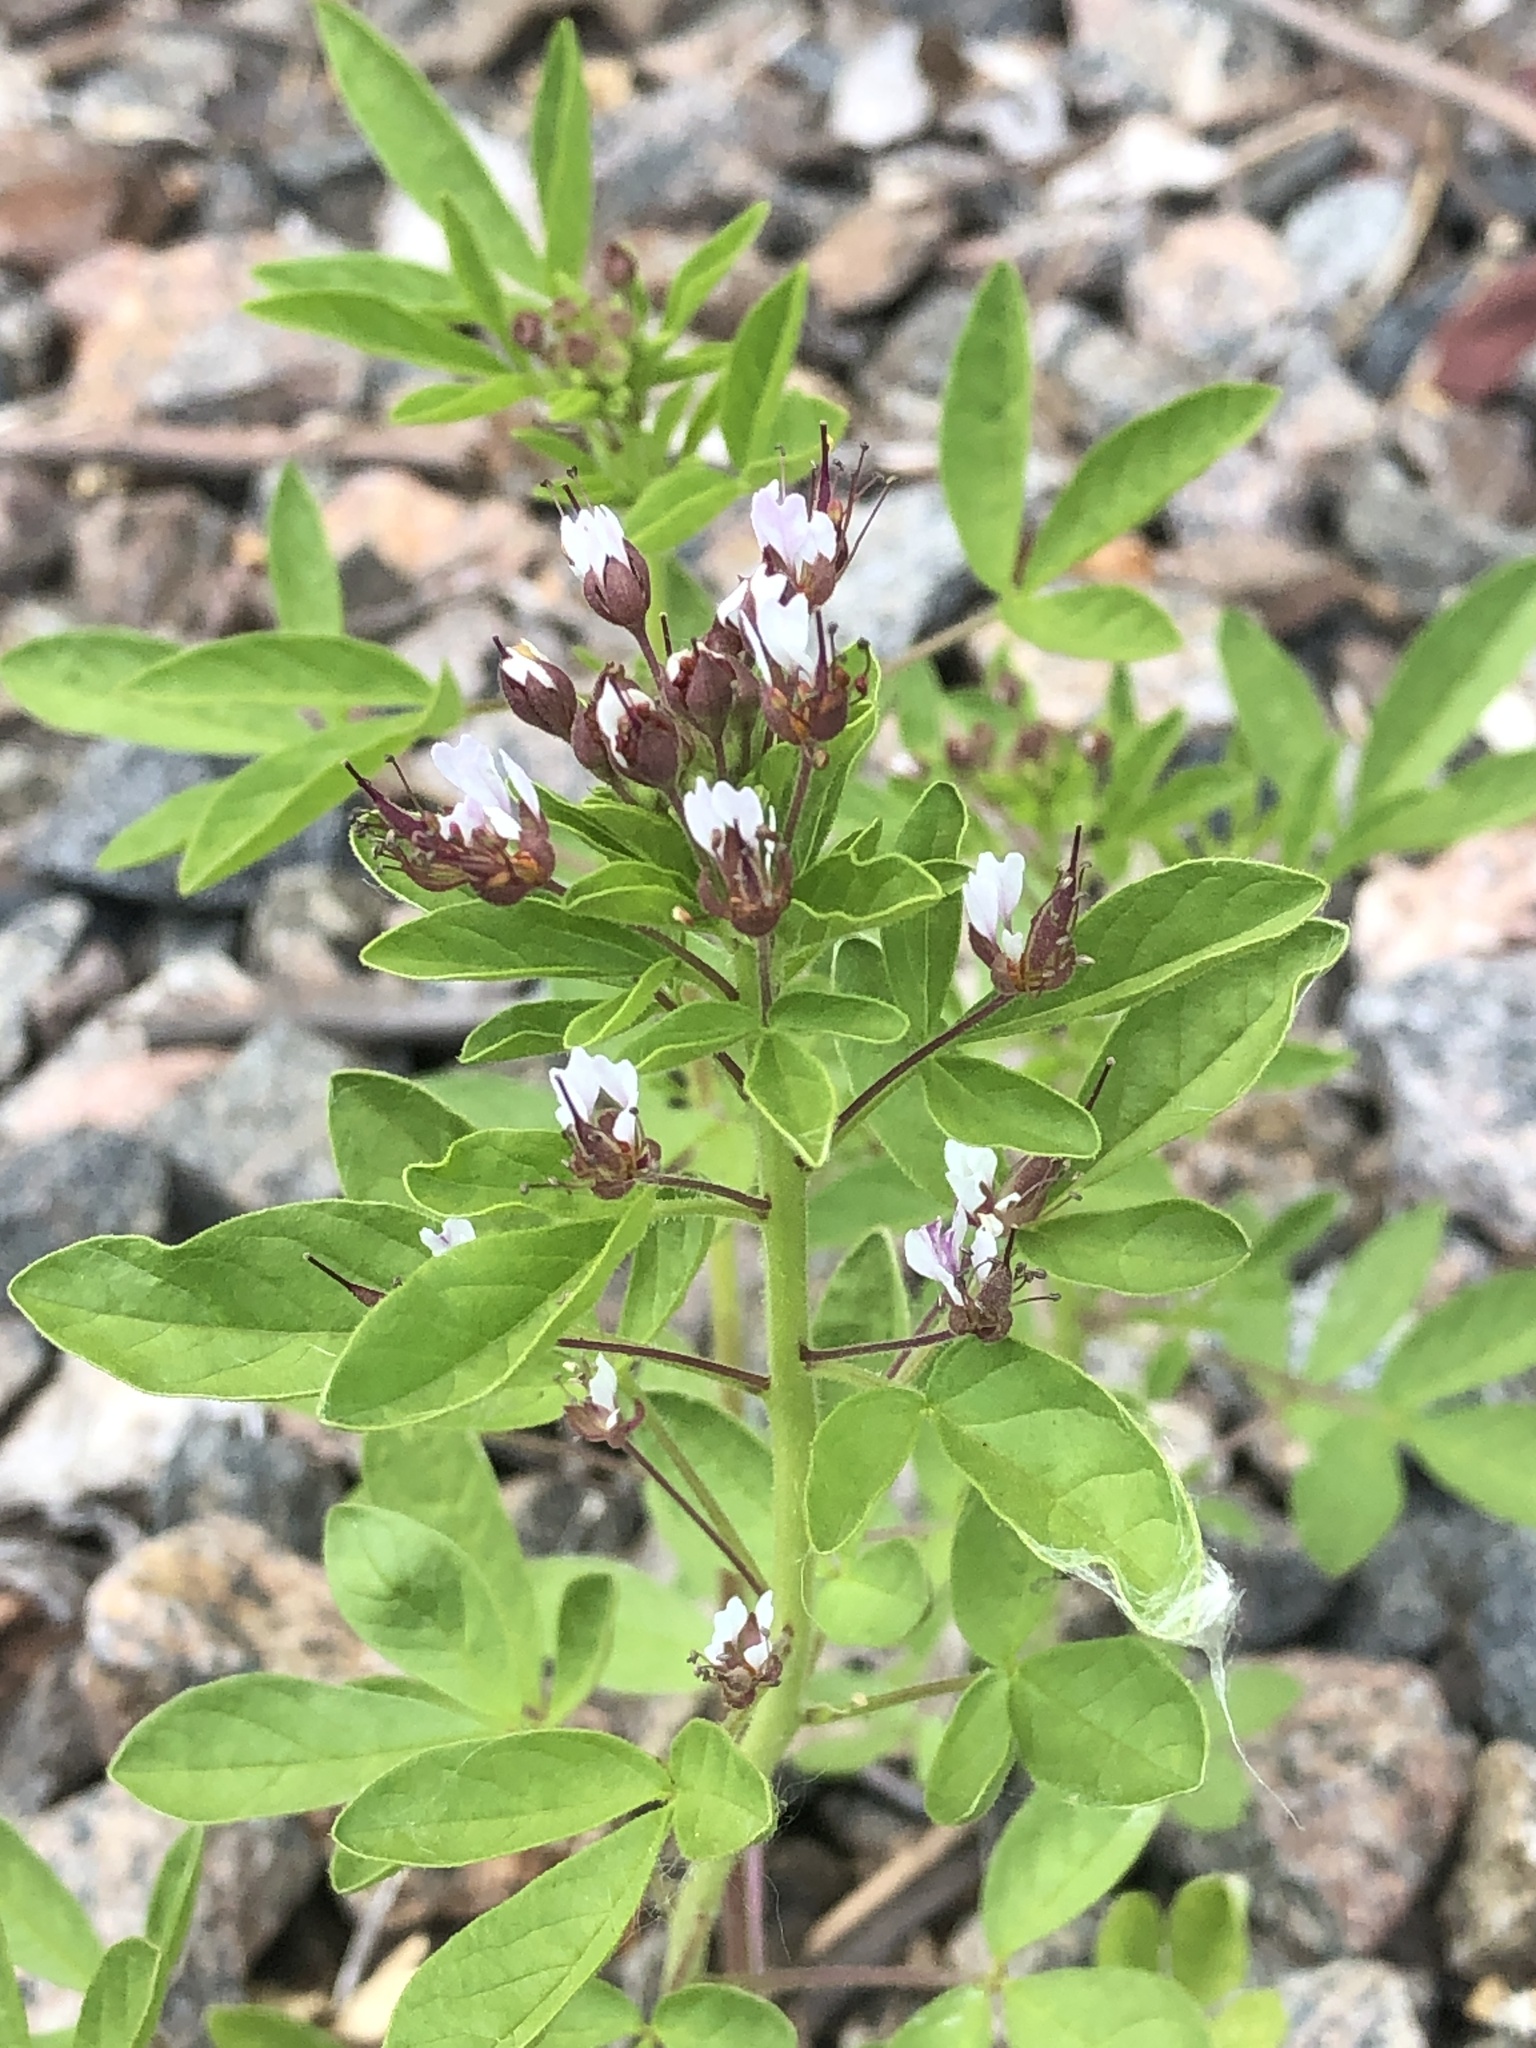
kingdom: Plantae
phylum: Tracheophyta
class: Magnoliopsida
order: Brassicales
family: Cleomaceae
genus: Polanisia
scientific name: Polanisia dodecandra
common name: Clammyweed
